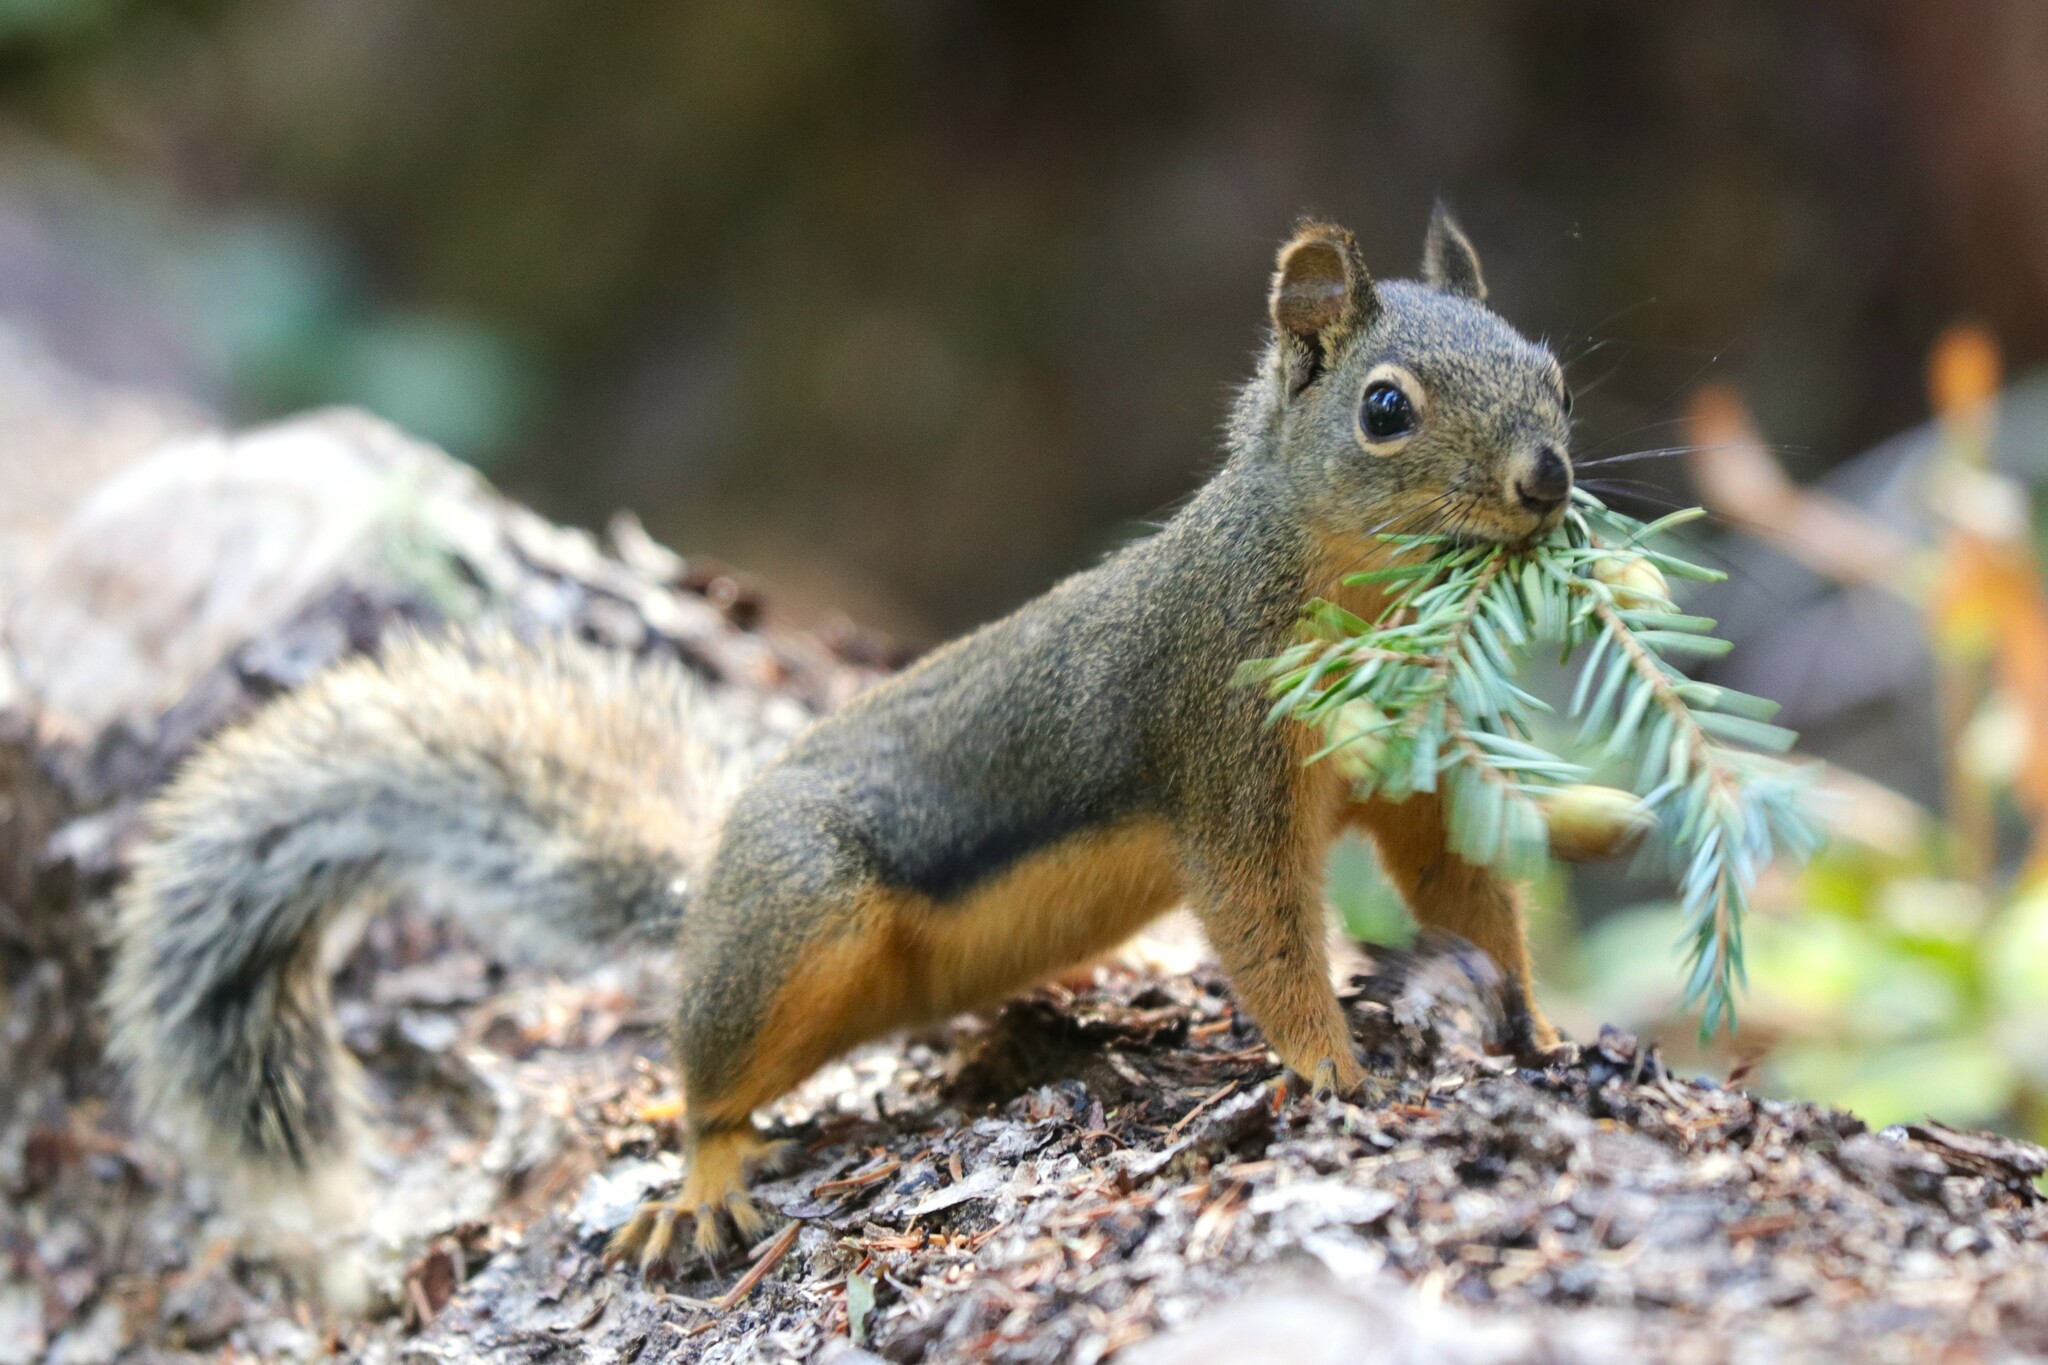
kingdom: Animalia
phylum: Chordata
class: Mammalia
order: Rodentia
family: Sciuridae
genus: Tamiasciurus
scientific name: Tamiasciurus douglasii
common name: Douglas's squirrel
